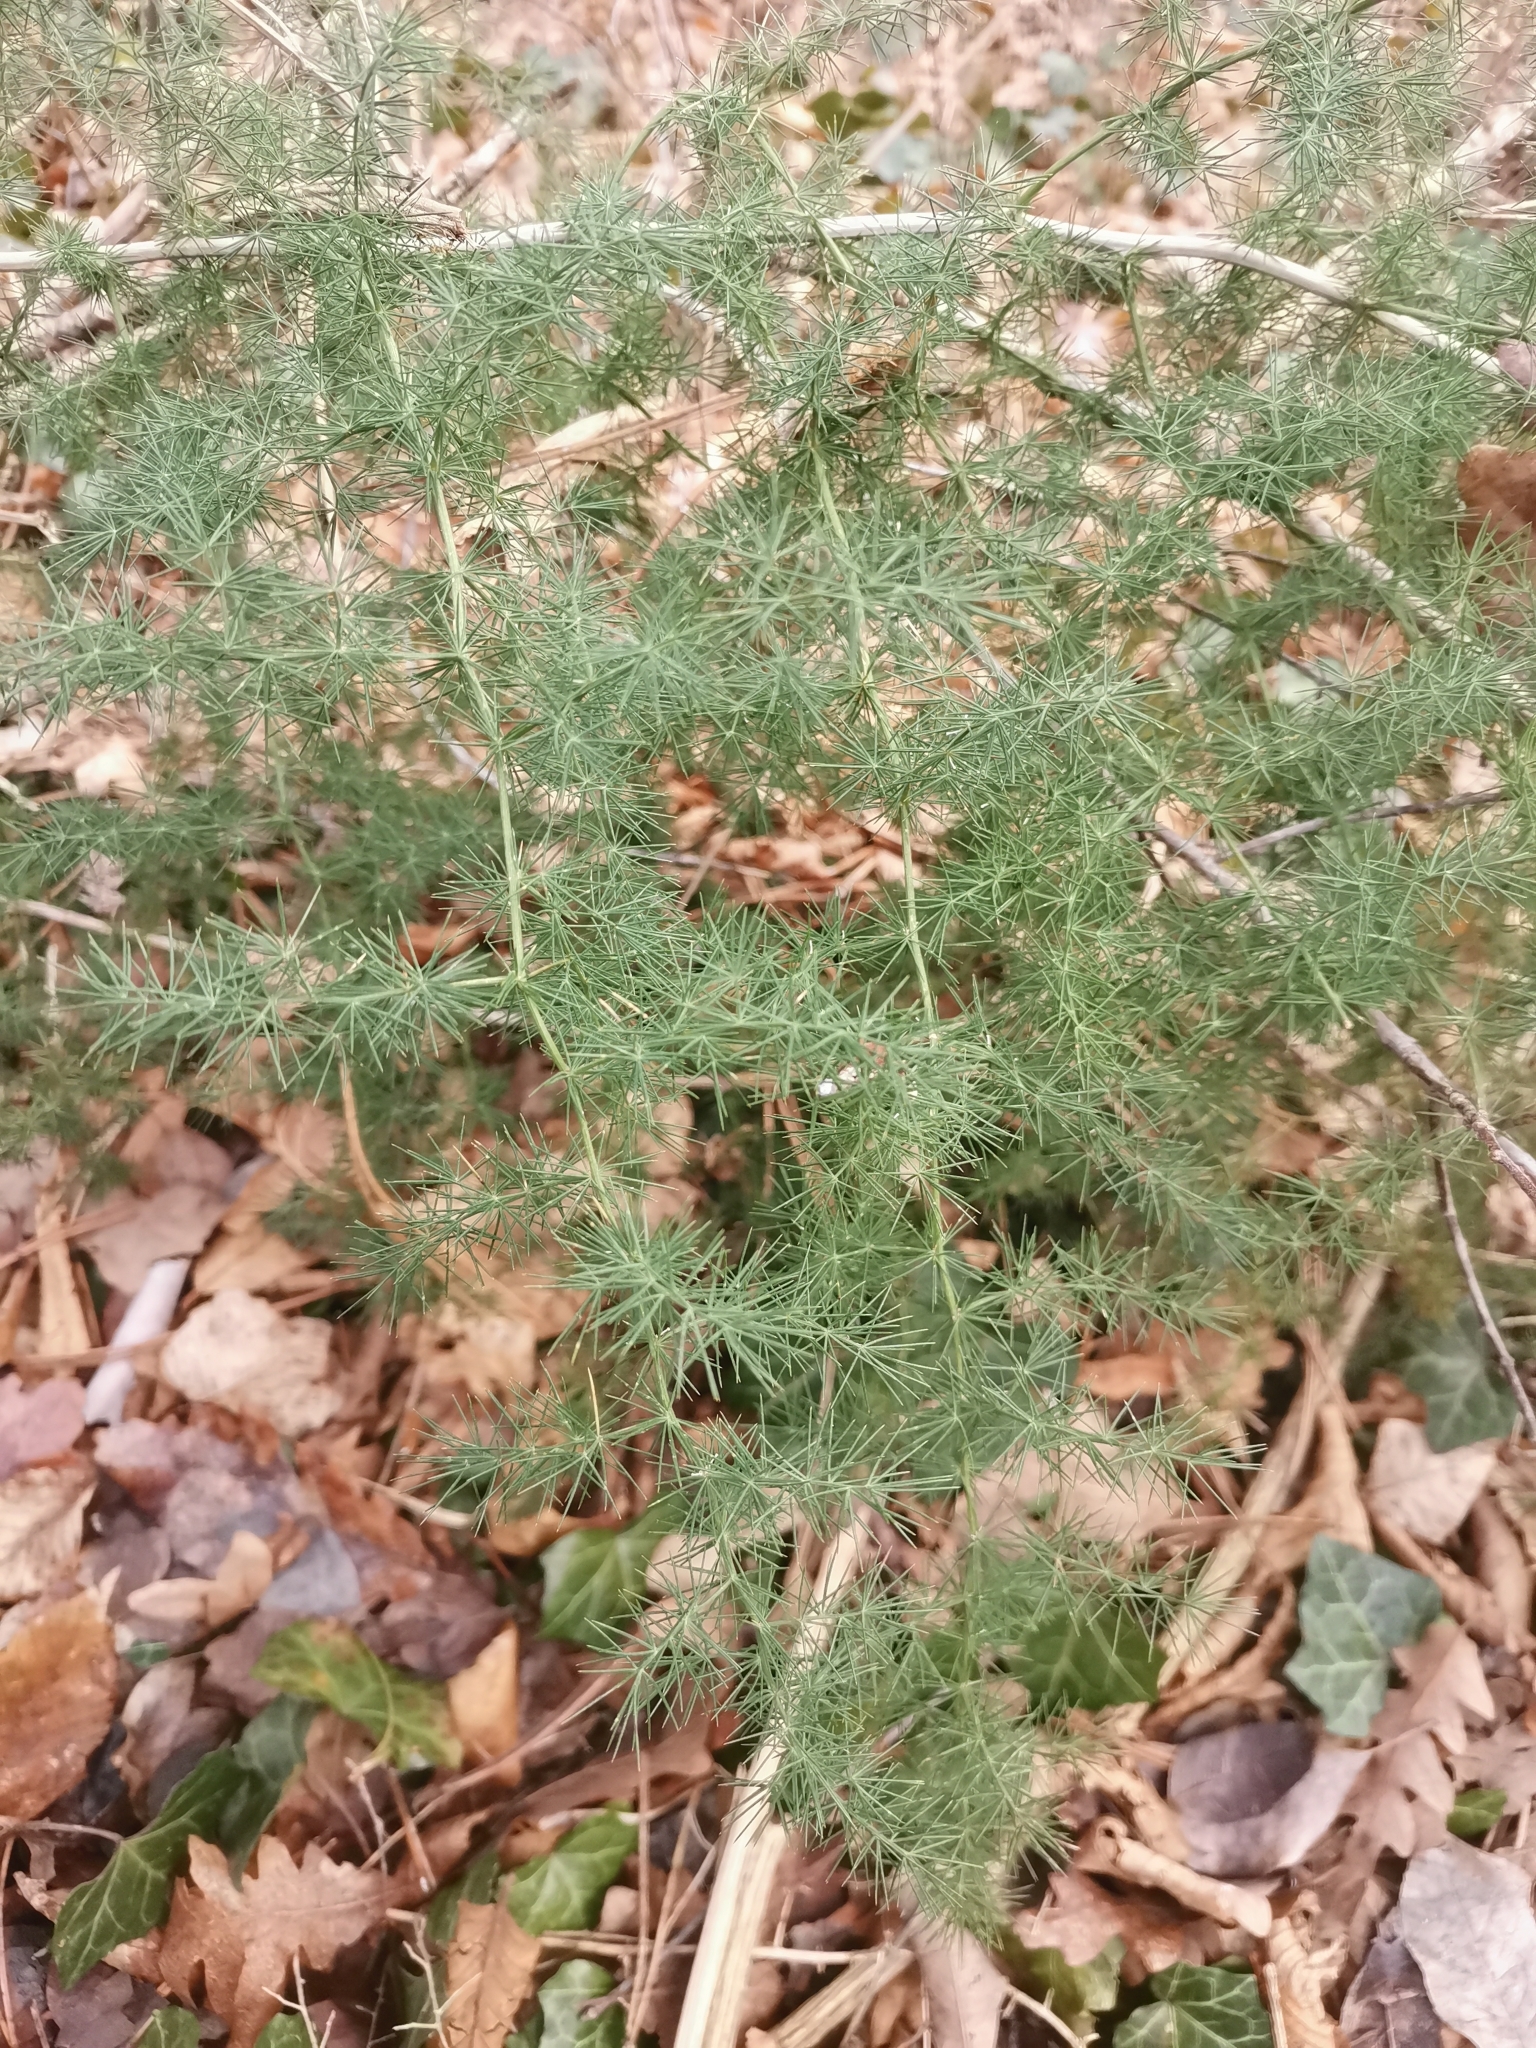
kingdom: Plantae
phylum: Tracheophyta
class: Liliopsida
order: Asparagales
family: Asparagaceae
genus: Asparagus
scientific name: Asparagus acutifolius
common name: Wild asparagus
